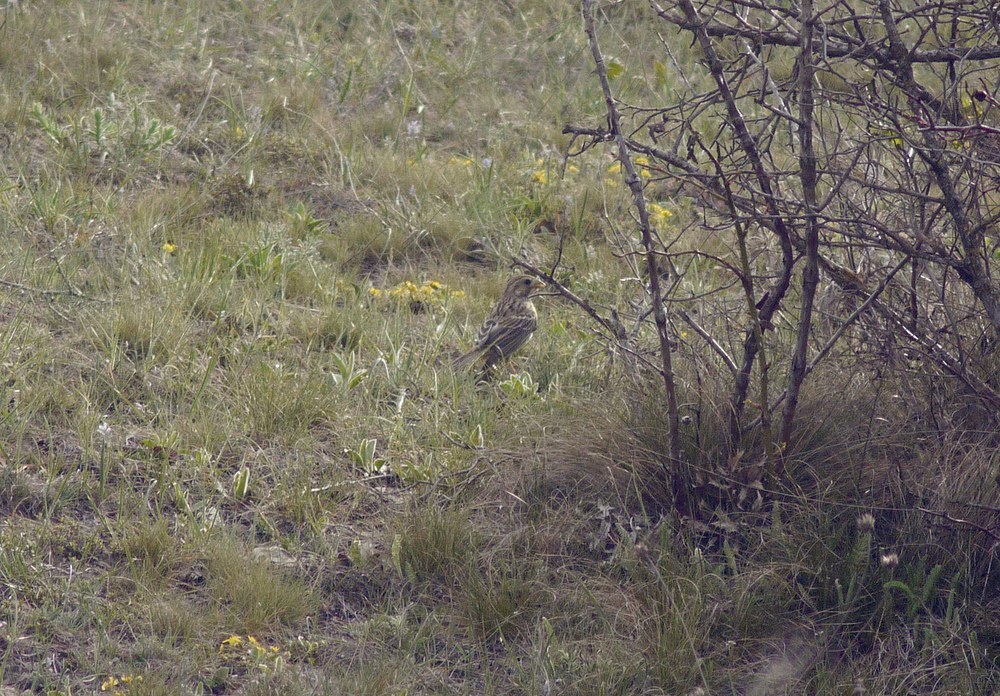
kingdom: Animalia
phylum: Chordata
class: Aves
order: Passeriformes
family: Emberizidae
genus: Emberiza
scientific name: Emberiza calandra
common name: Corn bunting
